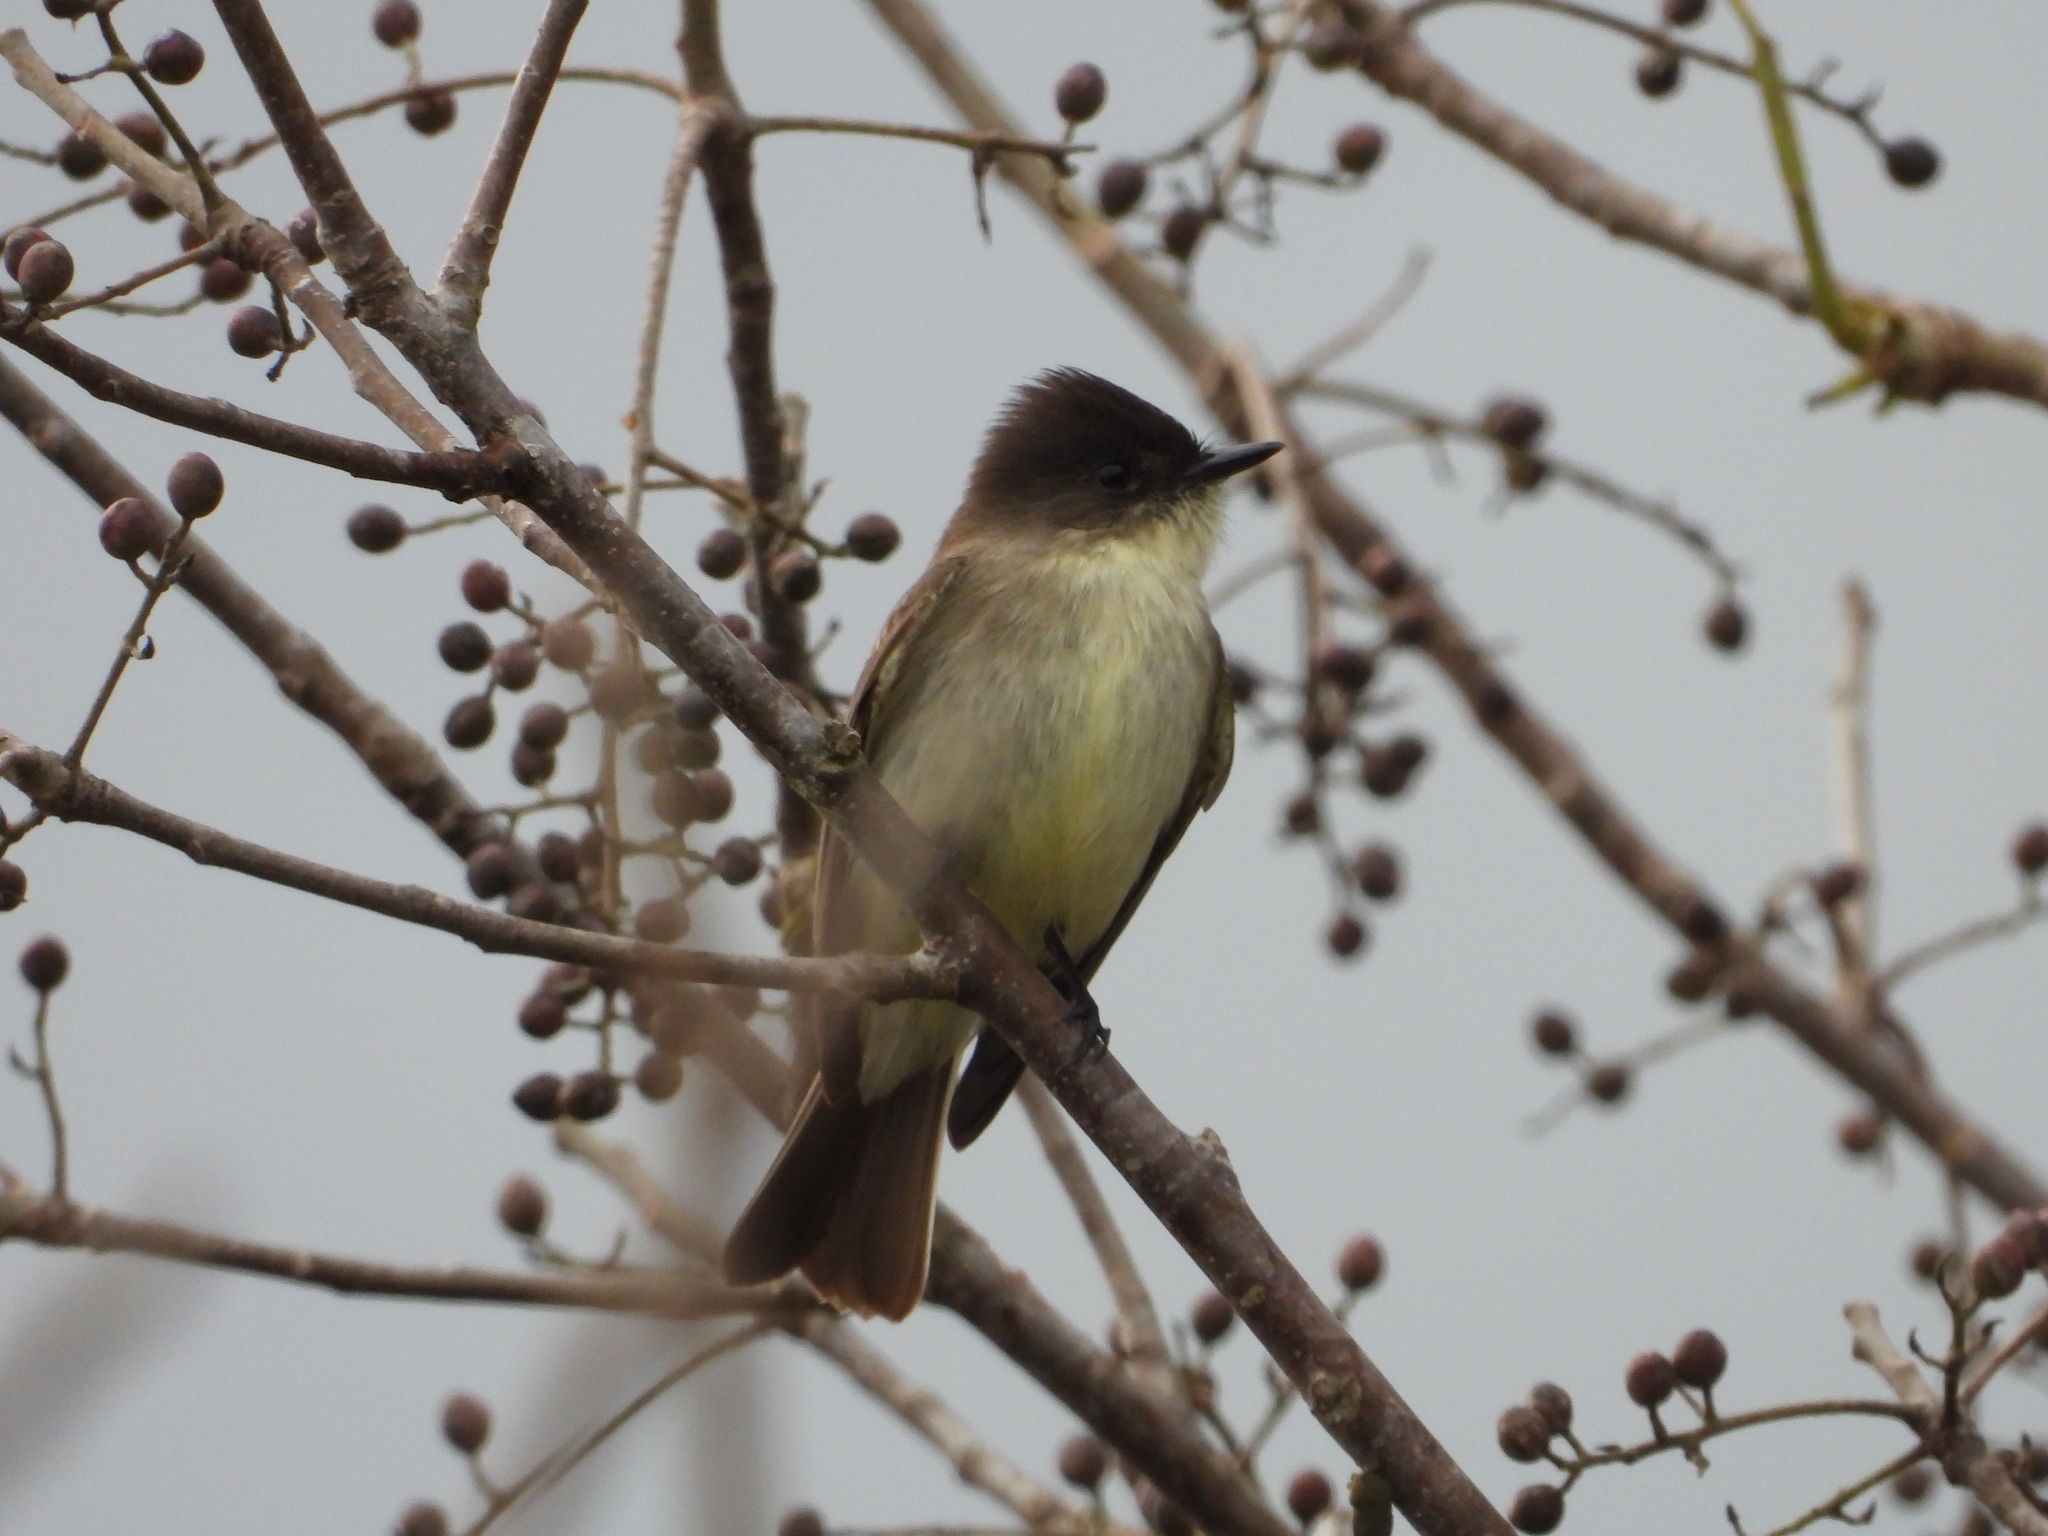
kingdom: Animalia
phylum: Chordata
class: Aves
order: Passeriformes
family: Tyrannidae
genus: Sayornis
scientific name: Sayornis phoebe
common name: Eastern phoebe
